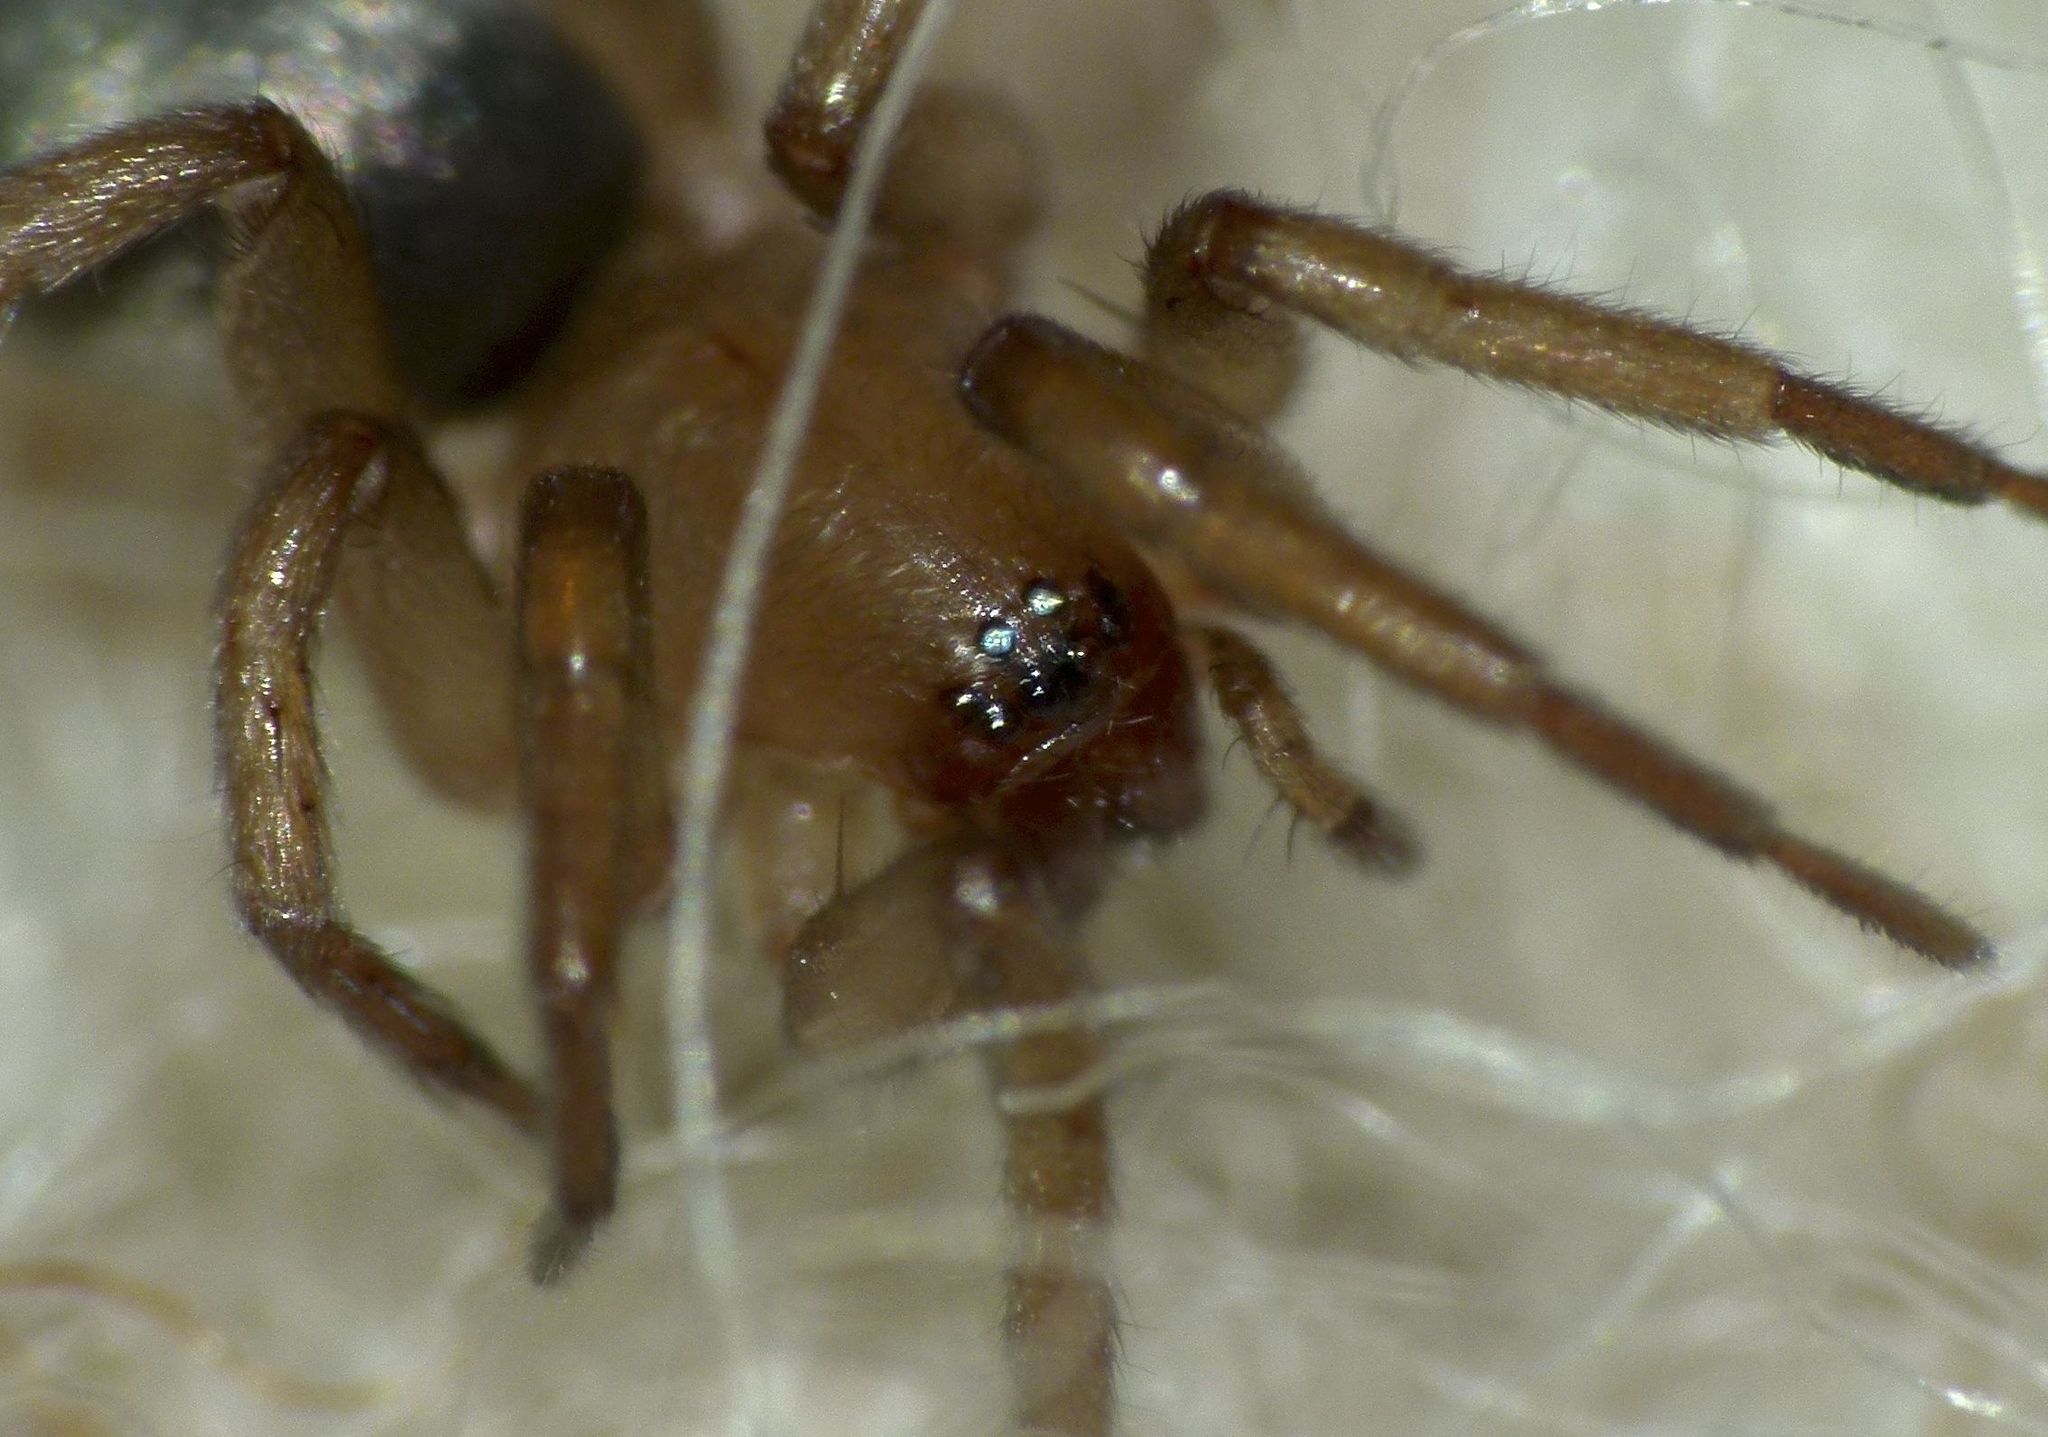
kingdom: Animalia
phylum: Arthropoda
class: Arachnida
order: Araneae
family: Gnaphosidae
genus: Anzacia
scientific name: Anzacia gemmea
